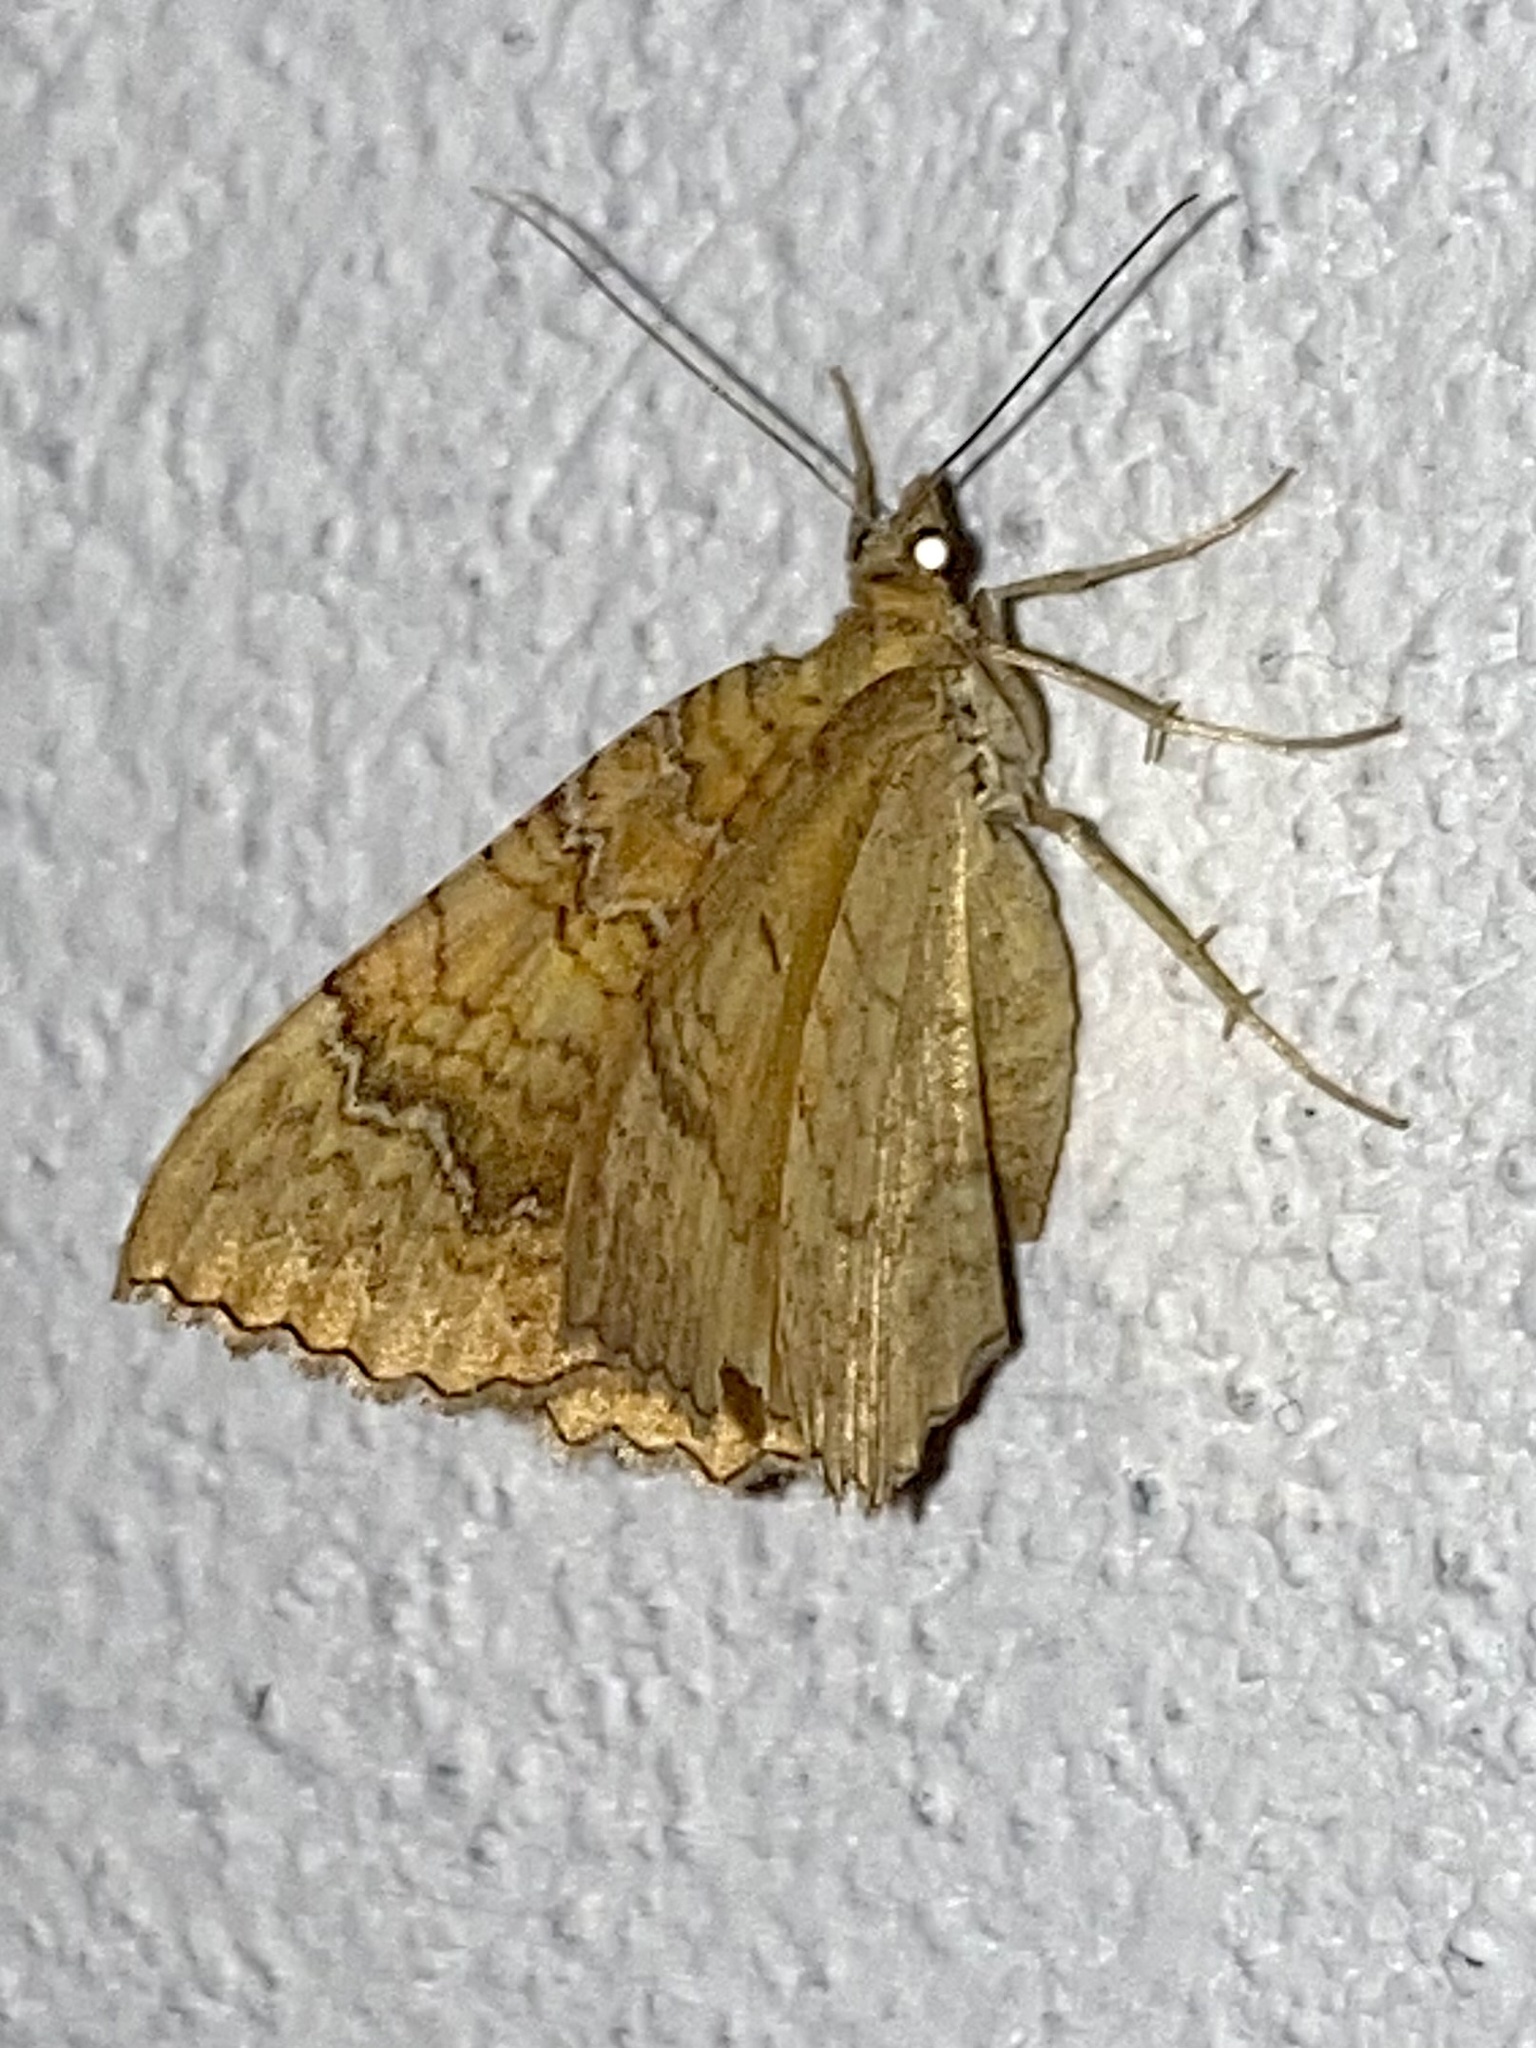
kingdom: Animalia
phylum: Arthropoda
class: Insecta
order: Lepidoptera
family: Geometridae
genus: Camptogramma
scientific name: Camptogramma bilineata
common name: Yellow shell
